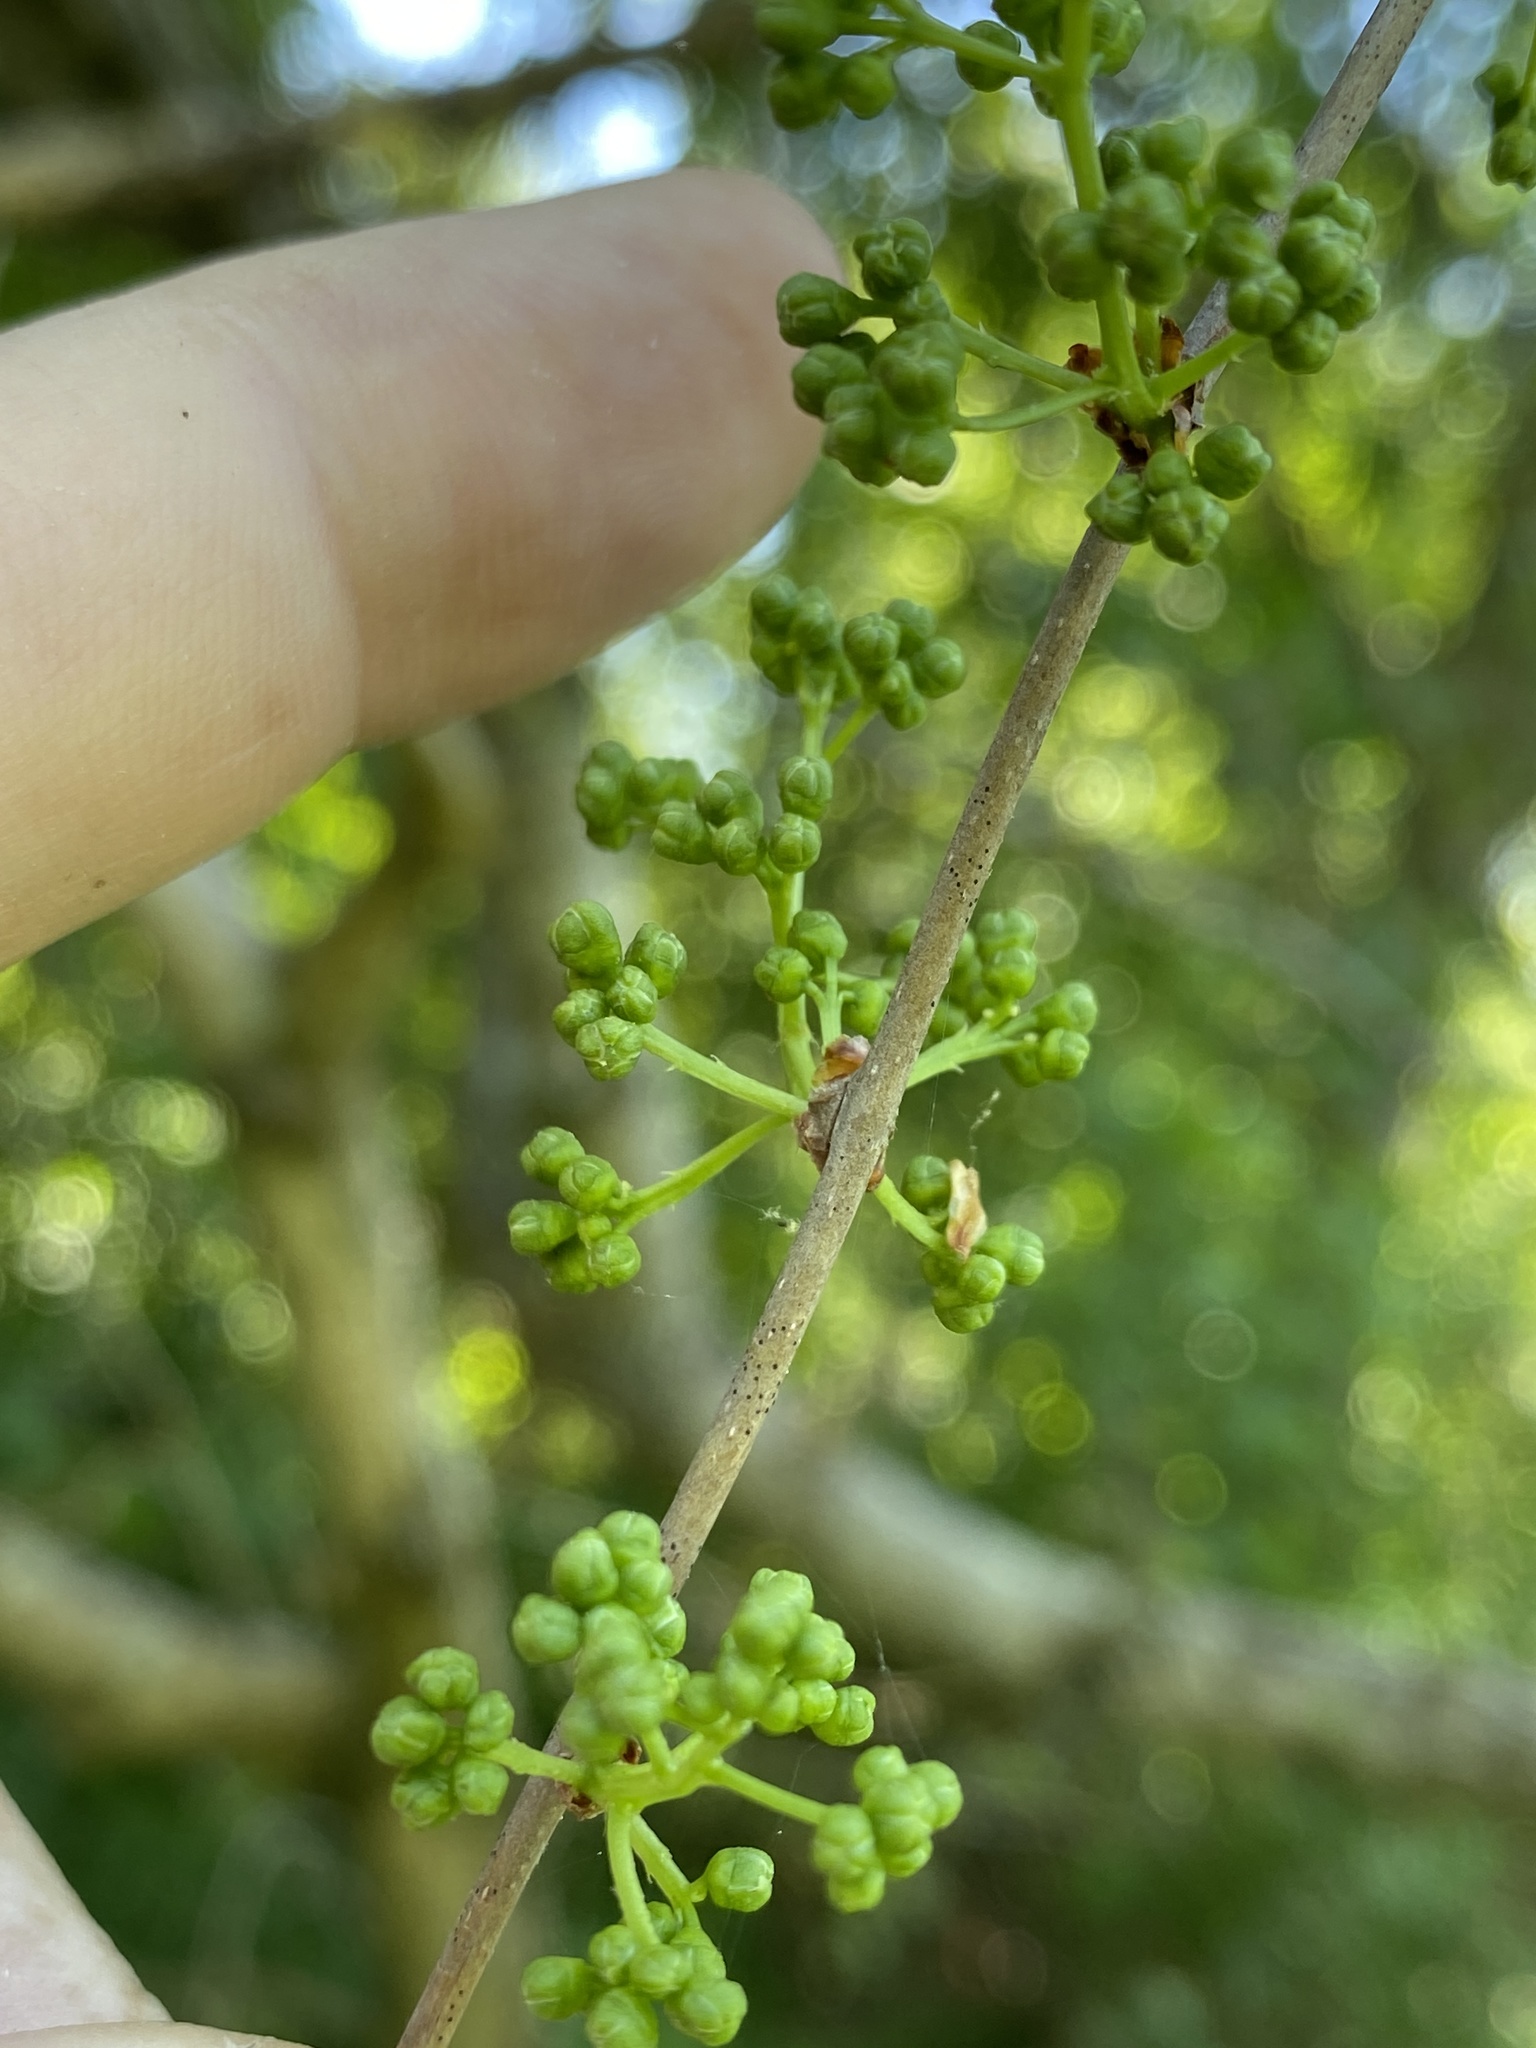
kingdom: Plantae
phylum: Tracheophyta
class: Magnoliopsida
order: Celastrales
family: Celastraceae
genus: Celastrus
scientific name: Celastrus orbiculatus
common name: Oriental bittersweet
